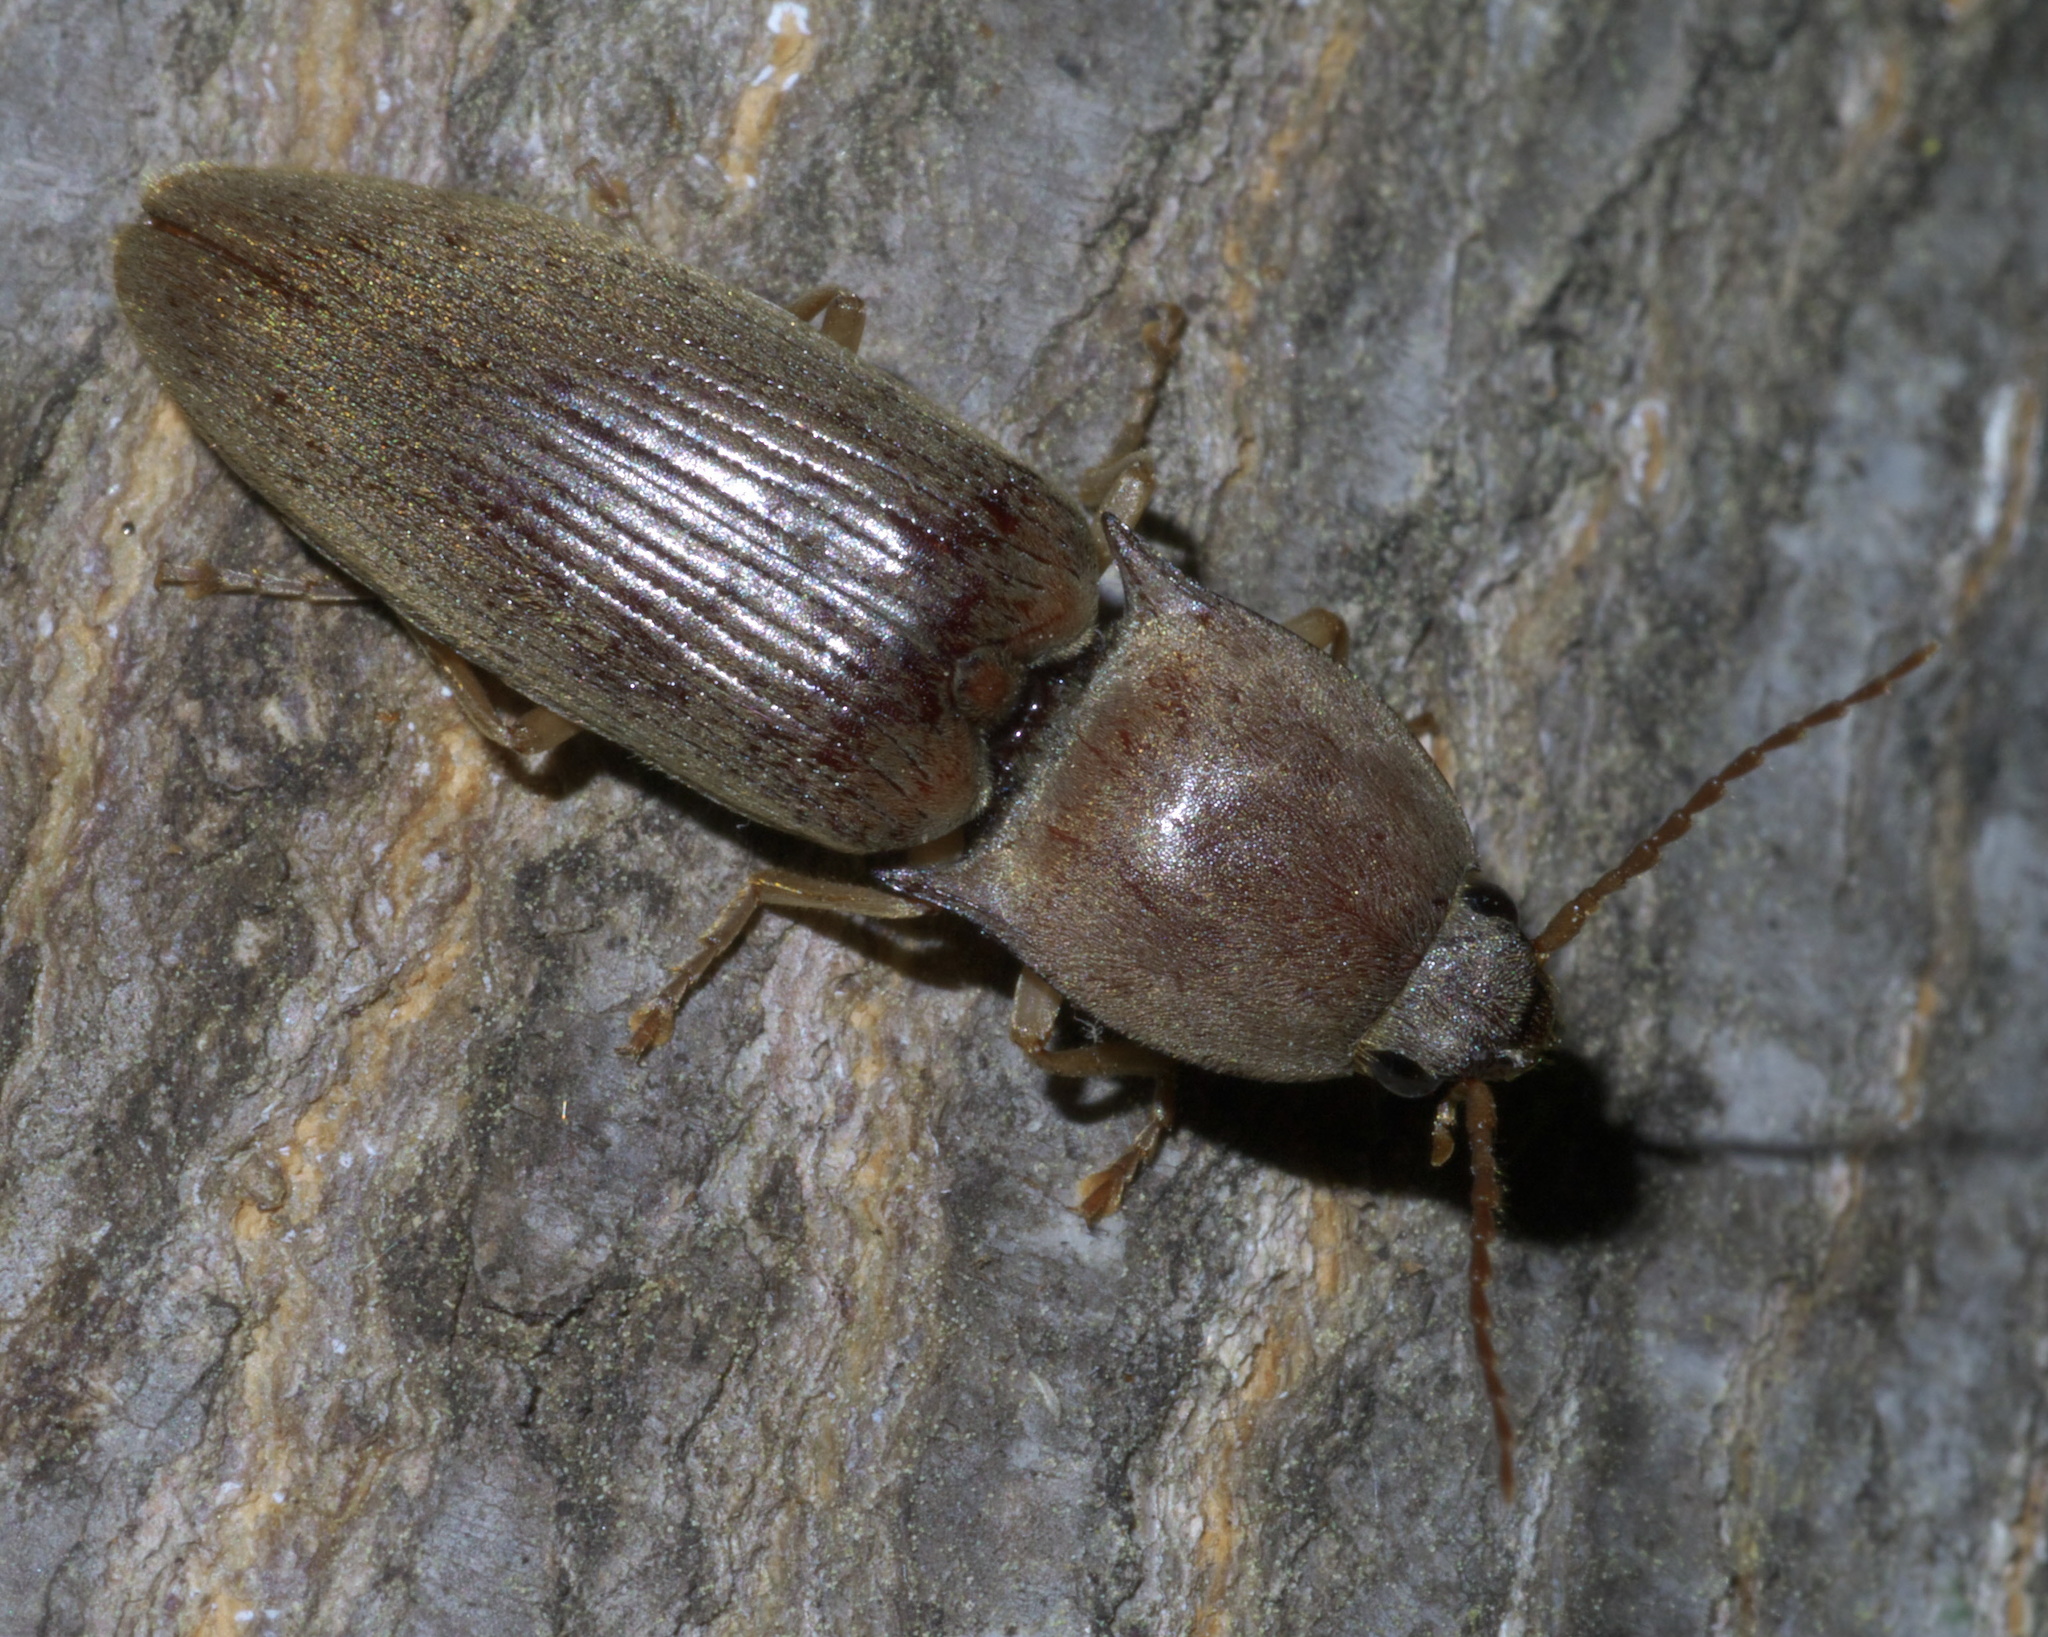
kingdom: Animalia
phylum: Arthropoda
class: Insecta
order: Coleoptera
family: Elateridae
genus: Monocrepidius
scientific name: Monocrepidius lividus
